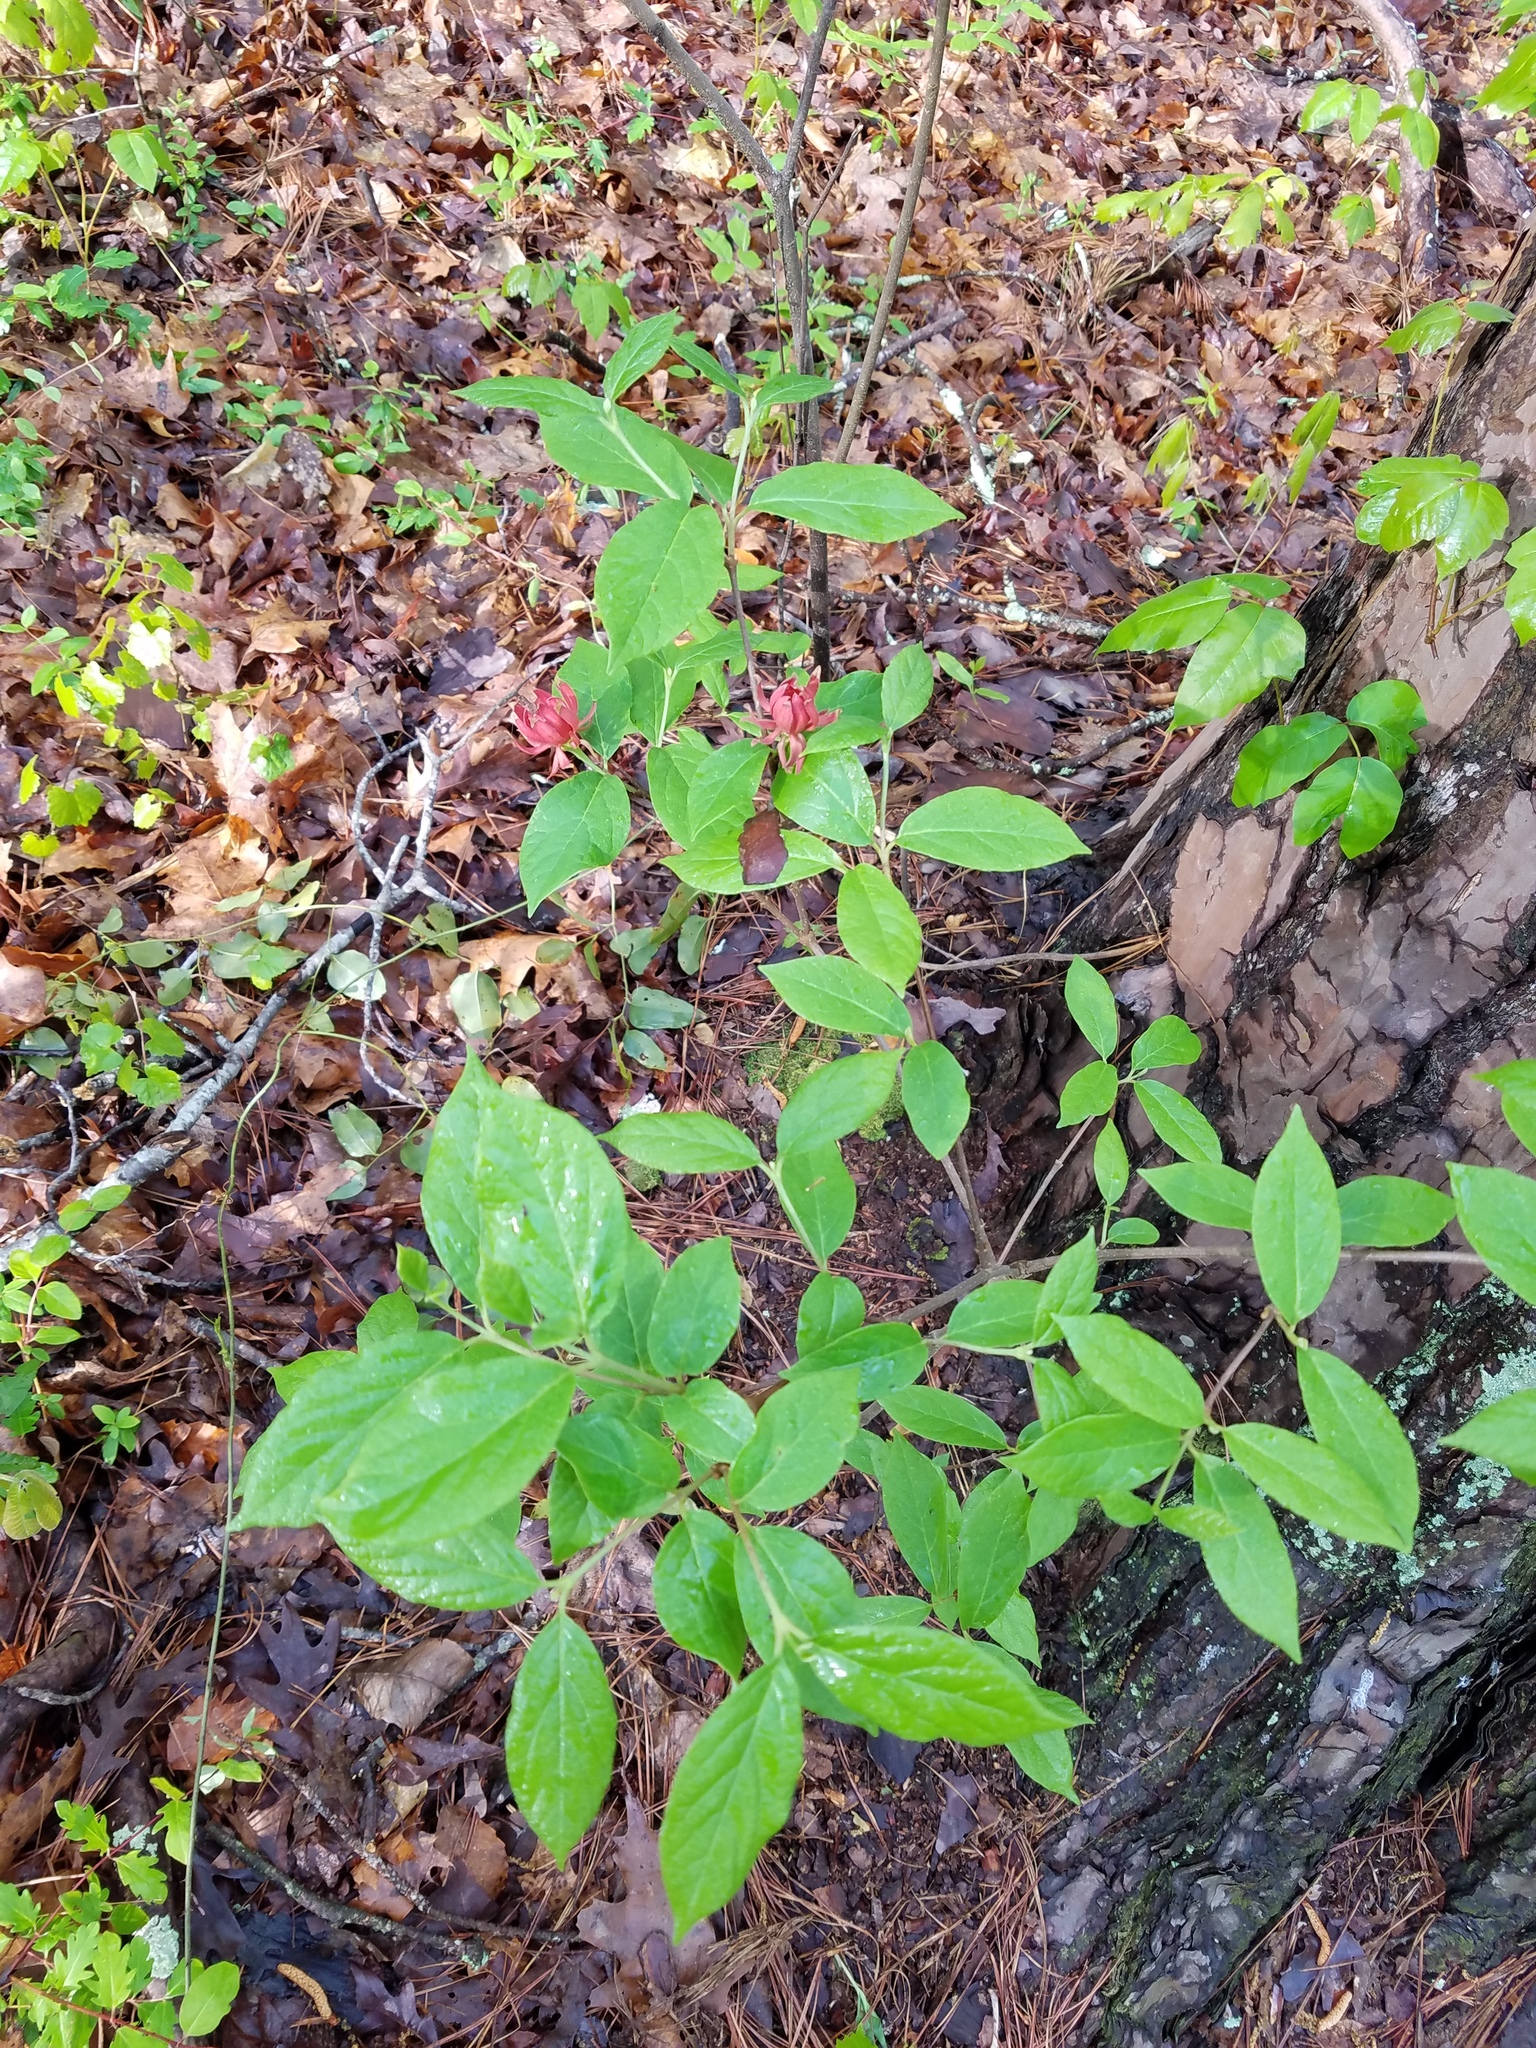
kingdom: Plantae
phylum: Tracheophyta
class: Magnoliopsida
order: Laurales
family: Calycanthaceae
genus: Calycanthus
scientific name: Calycanthus floridus
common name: Carolina-allspice
